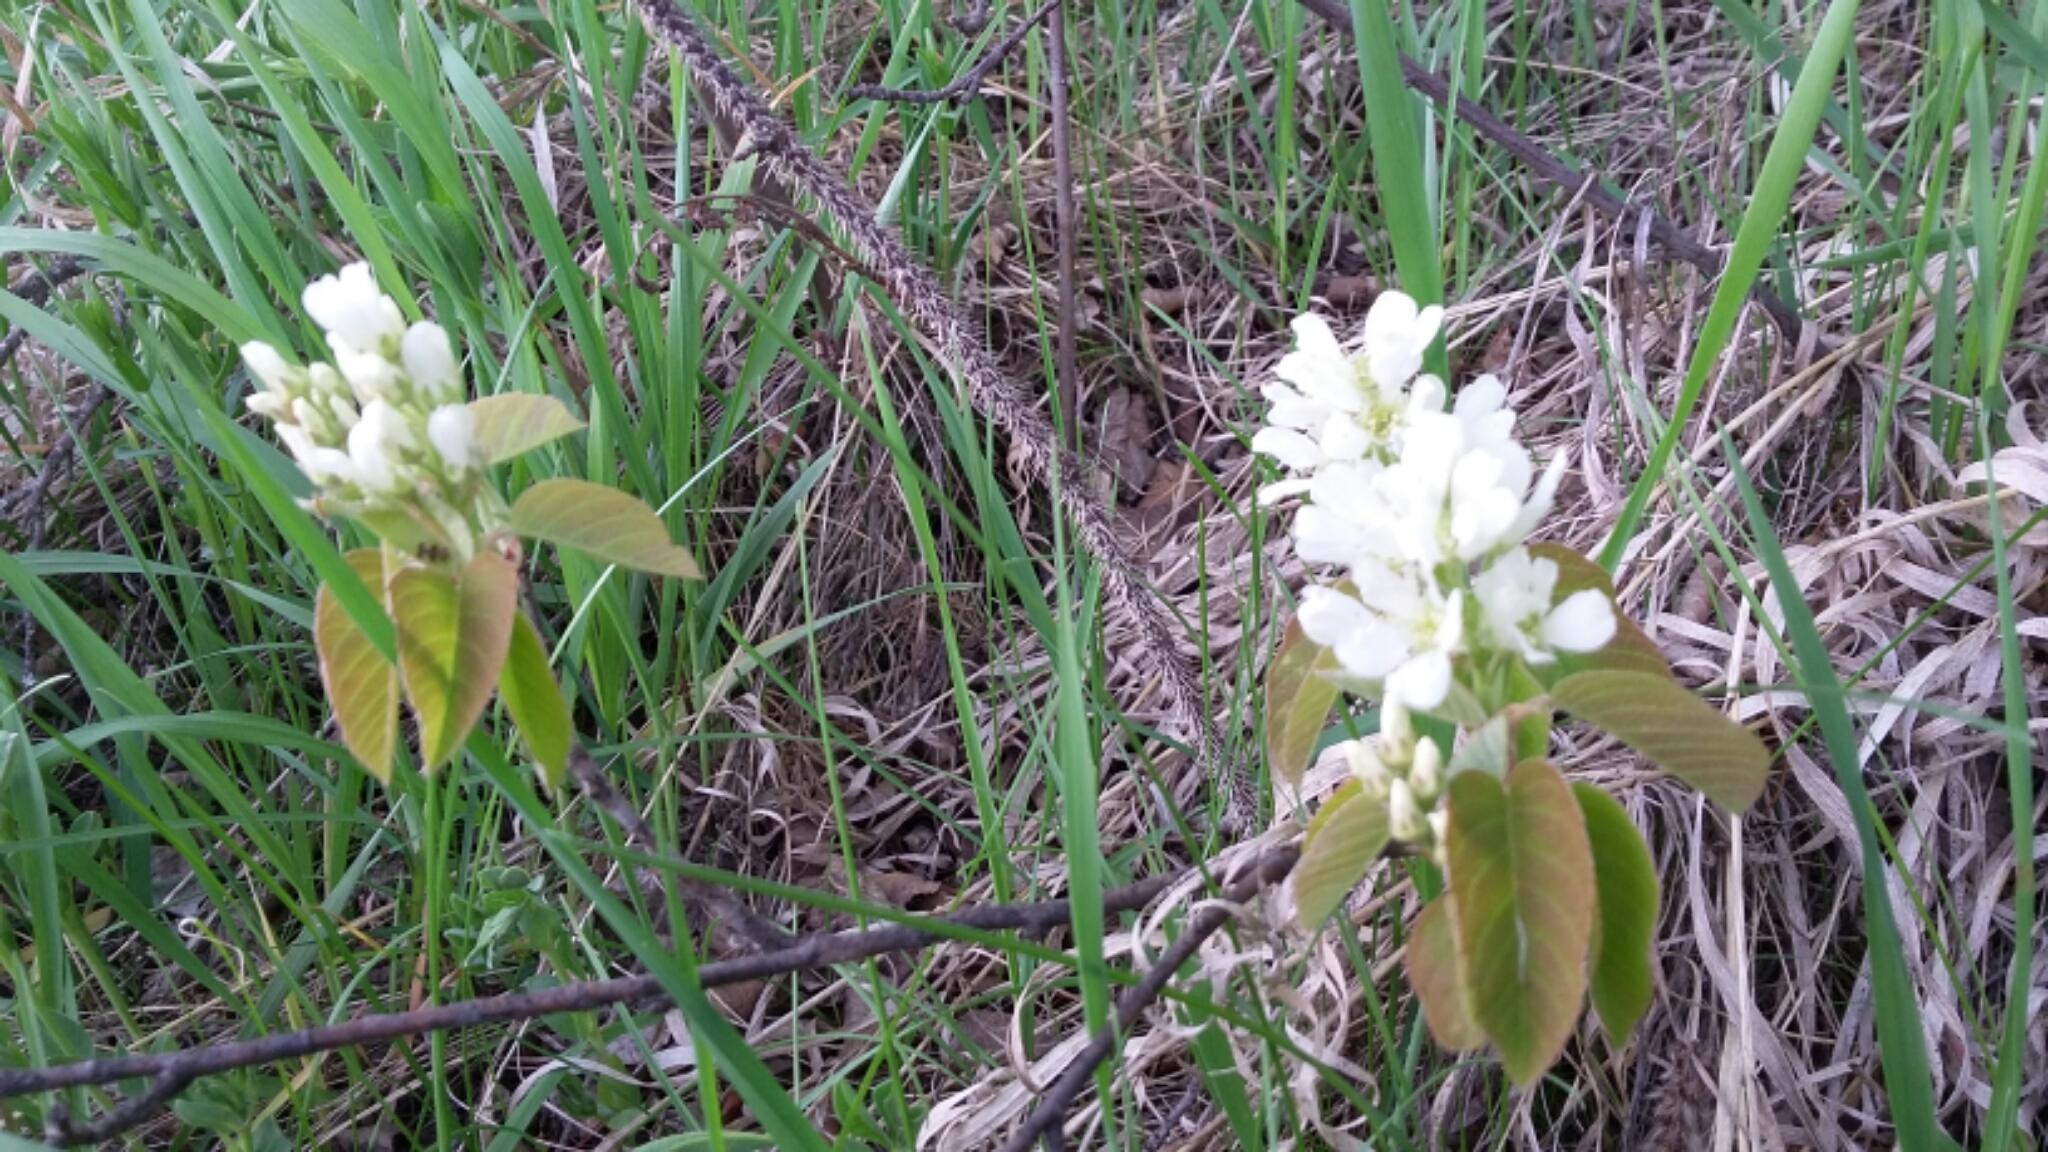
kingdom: Plantae
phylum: Tracheophyta
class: Magnoliopsida
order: Rosales
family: Rosaceae
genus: Amelanchier
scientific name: Amelanchier alnifolia
